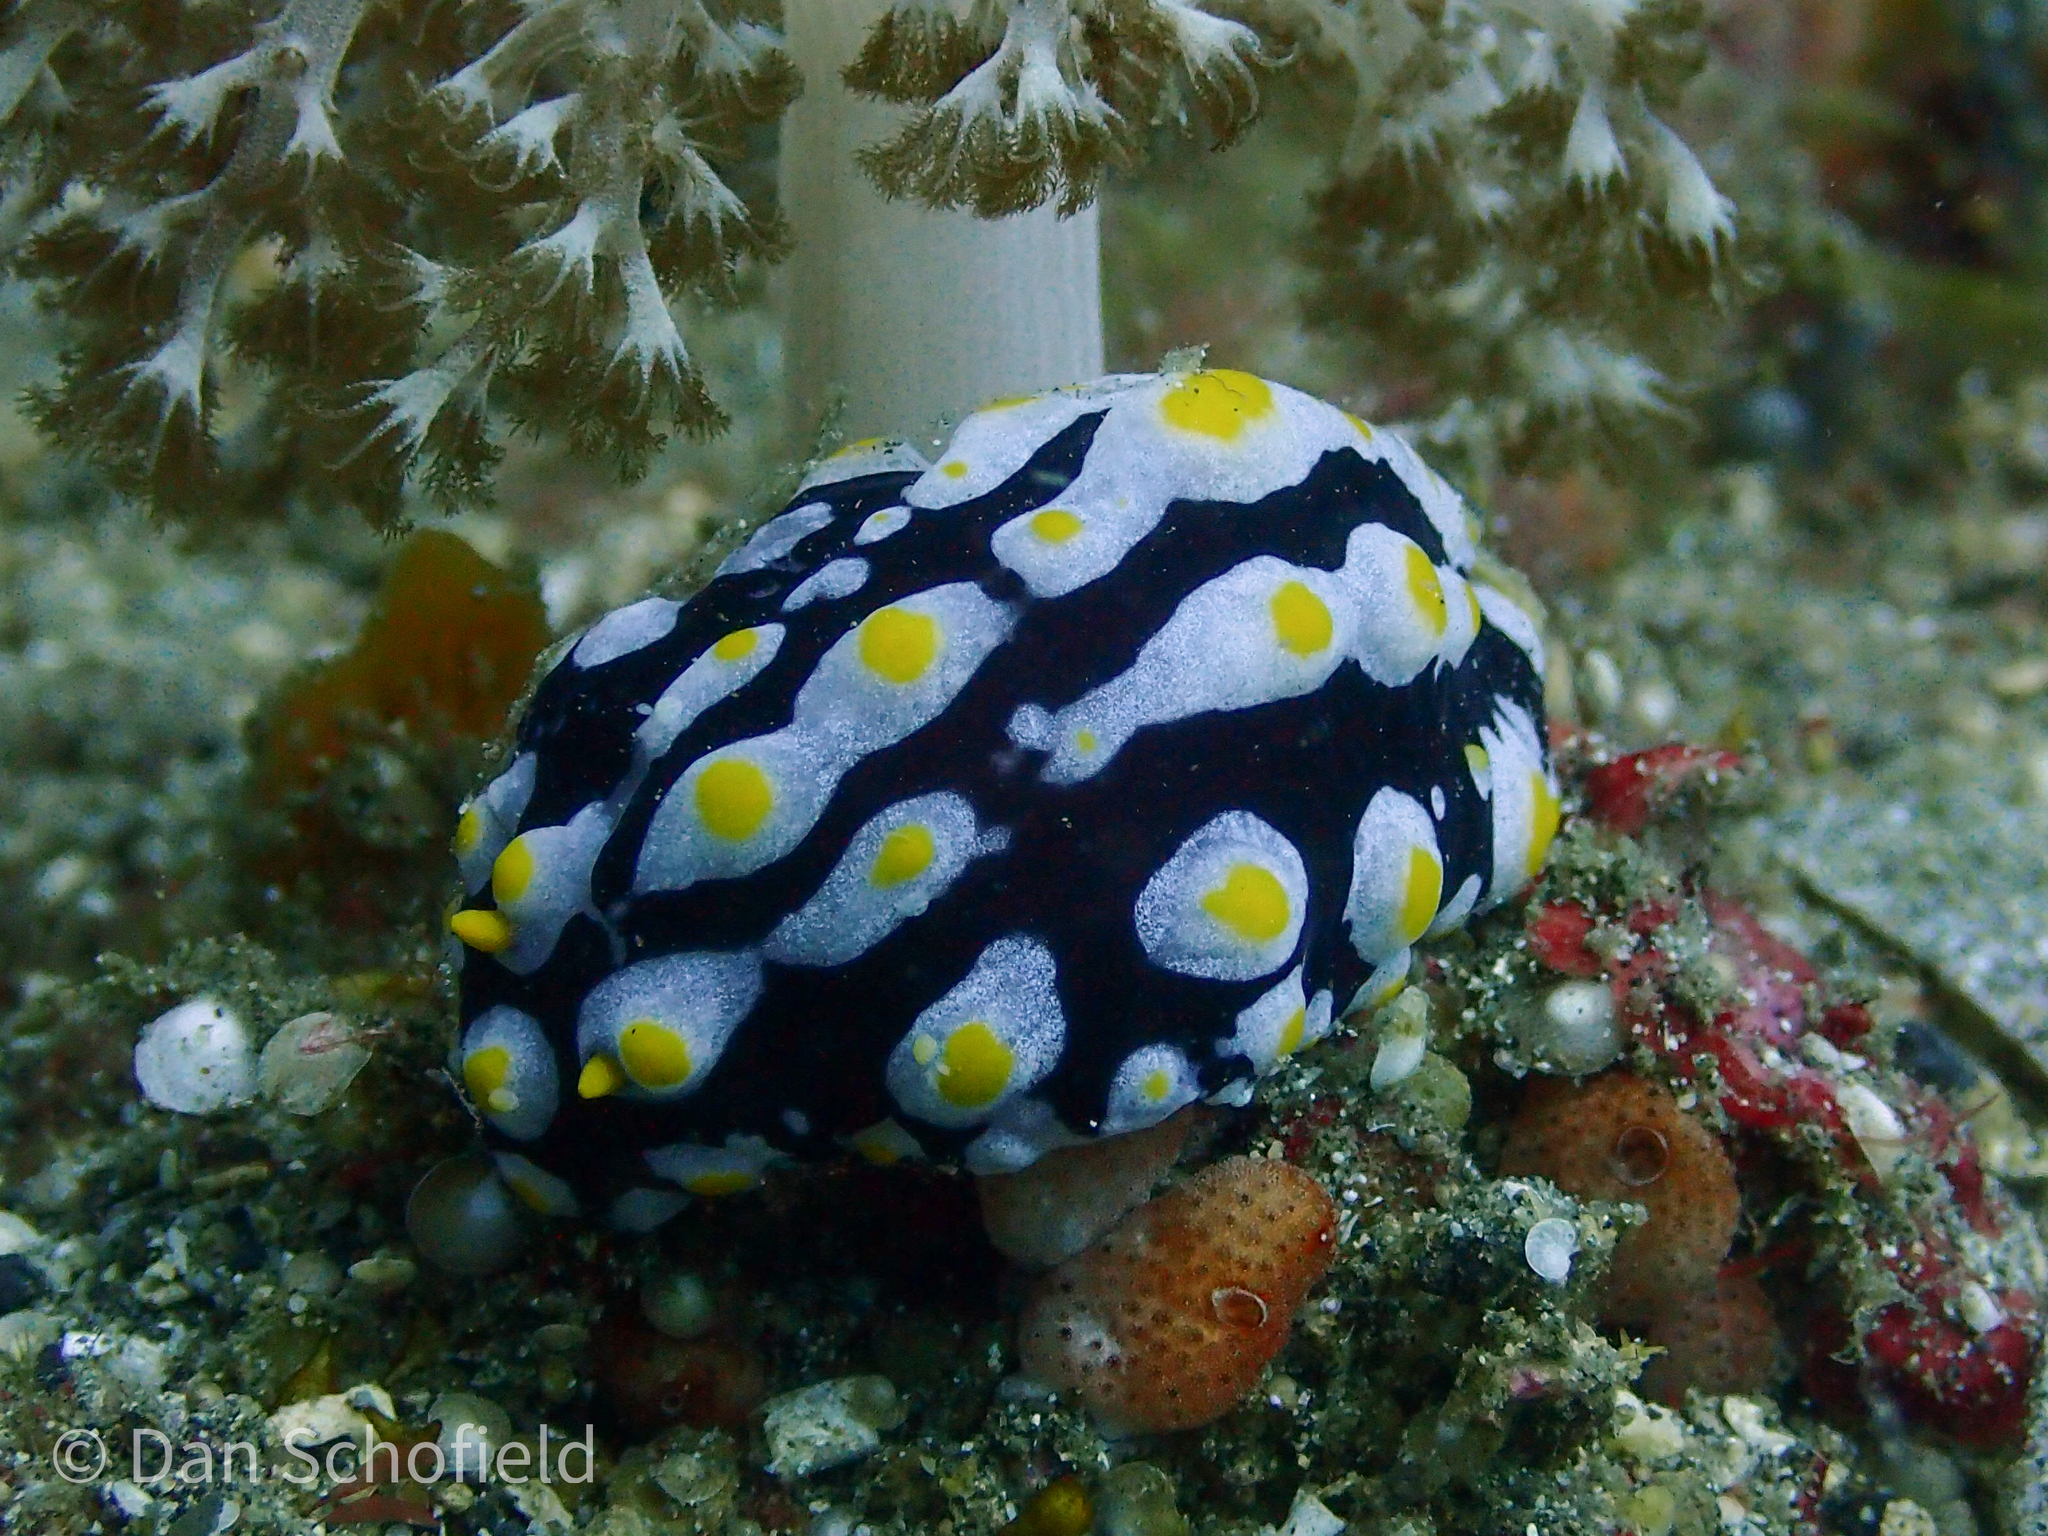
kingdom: Animalia
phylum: Mollusca
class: Gastropoda
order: Nudibranchia
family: Phyllidiidae
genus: Phyllidia
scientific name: Phyllidia varicosa
